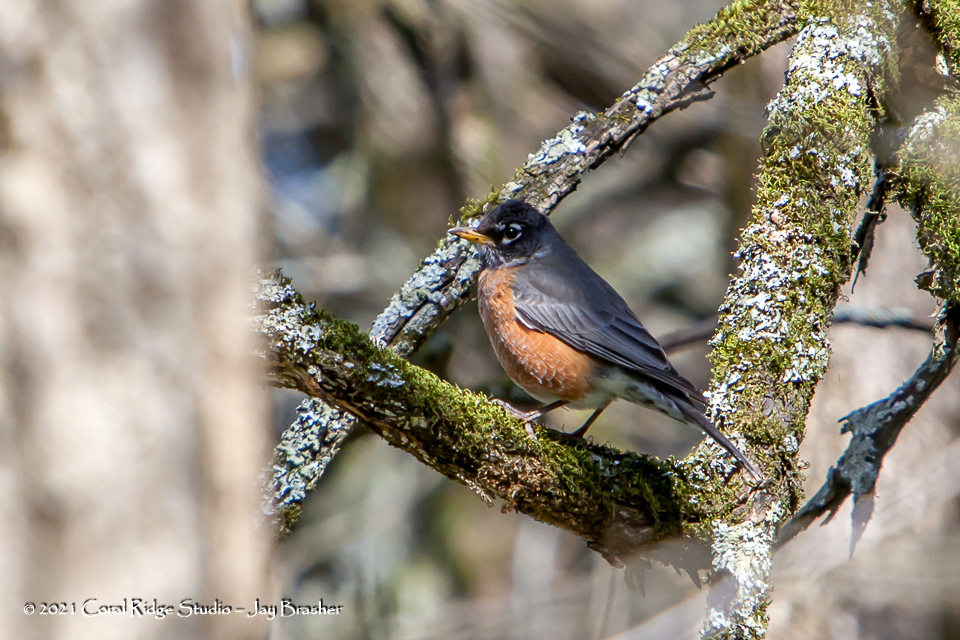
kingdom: Animalia
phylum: Chordata
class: Aves
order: Passeriformes
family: Turdidae
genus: Turdus
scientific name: Turdus migratorius
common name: American robin
